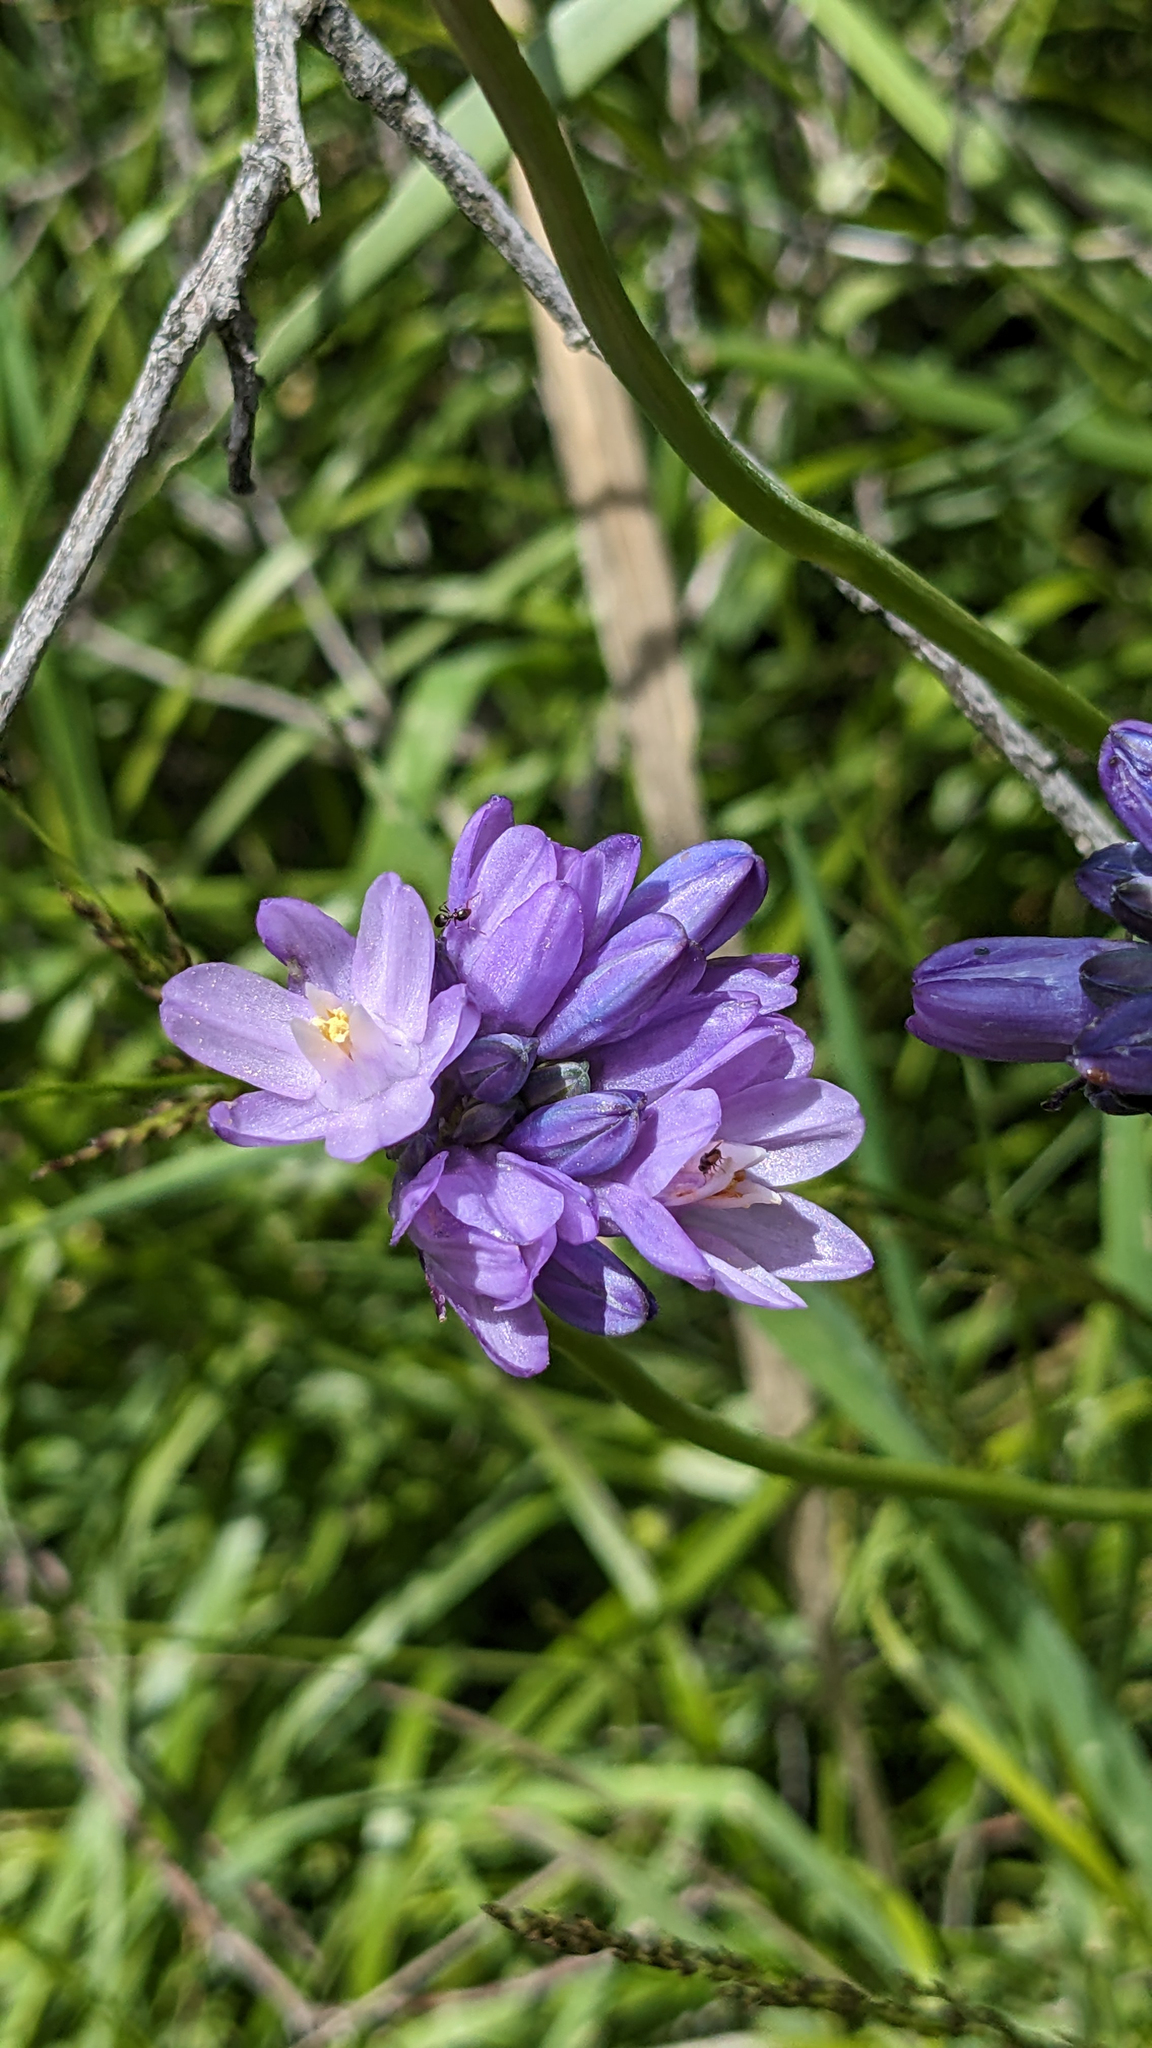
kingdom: Plantae
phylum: Tracheophyta
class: Liliopsida
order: Asparagales
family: Asparagaceae
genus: Dipterostemon
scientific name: Dipterostemon capitatus
